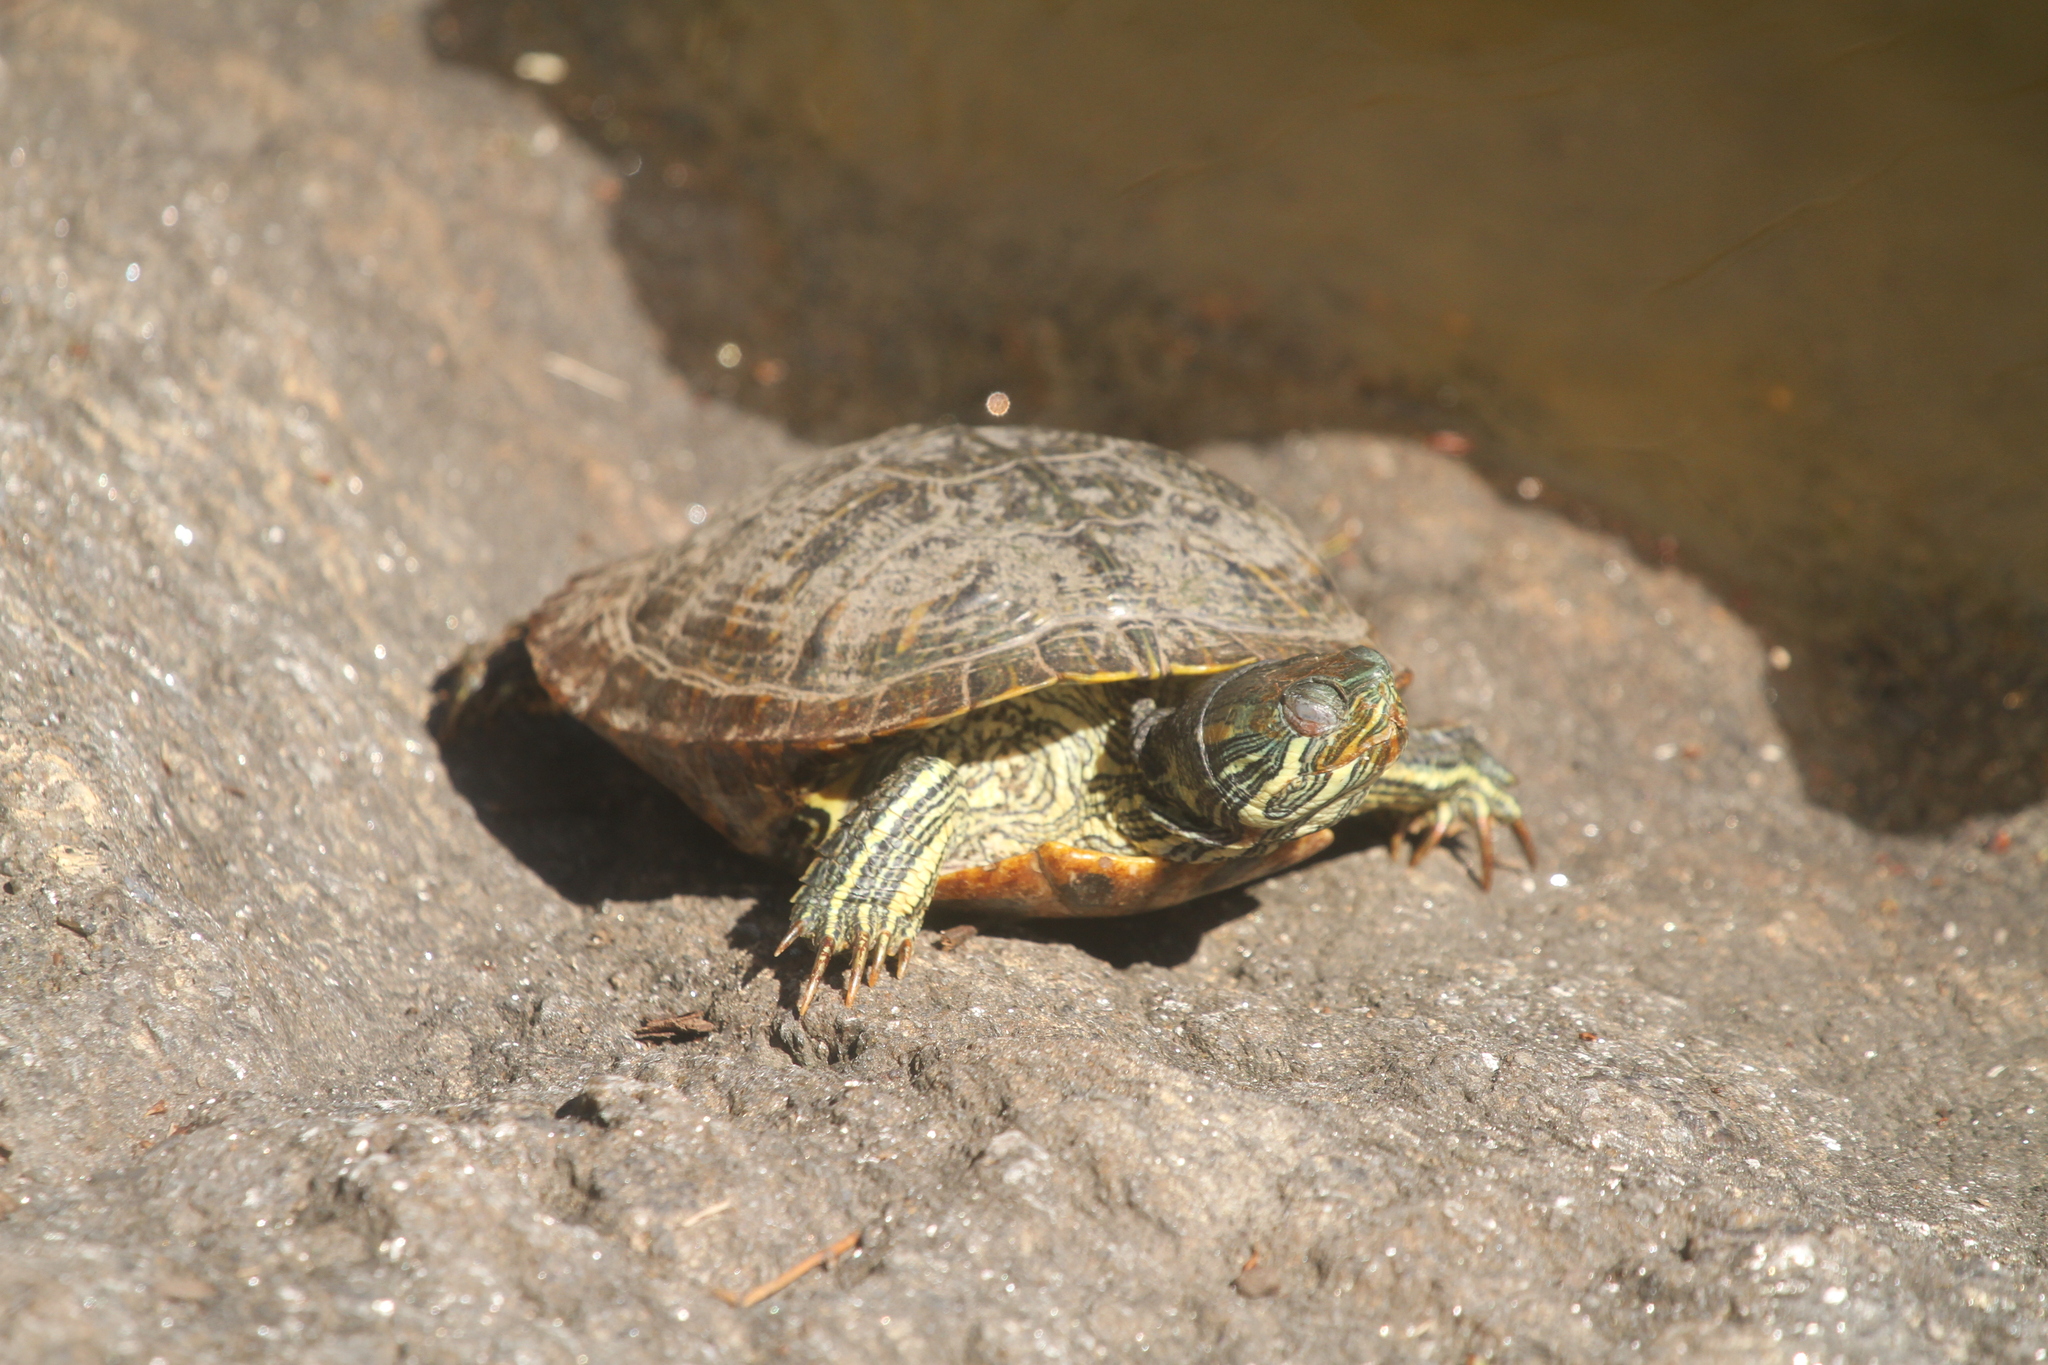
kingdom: Animalia
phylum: Chordata
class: Testudines
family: Emydidae
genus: Trachemys
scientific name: Trachemys scripta
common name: Slider
